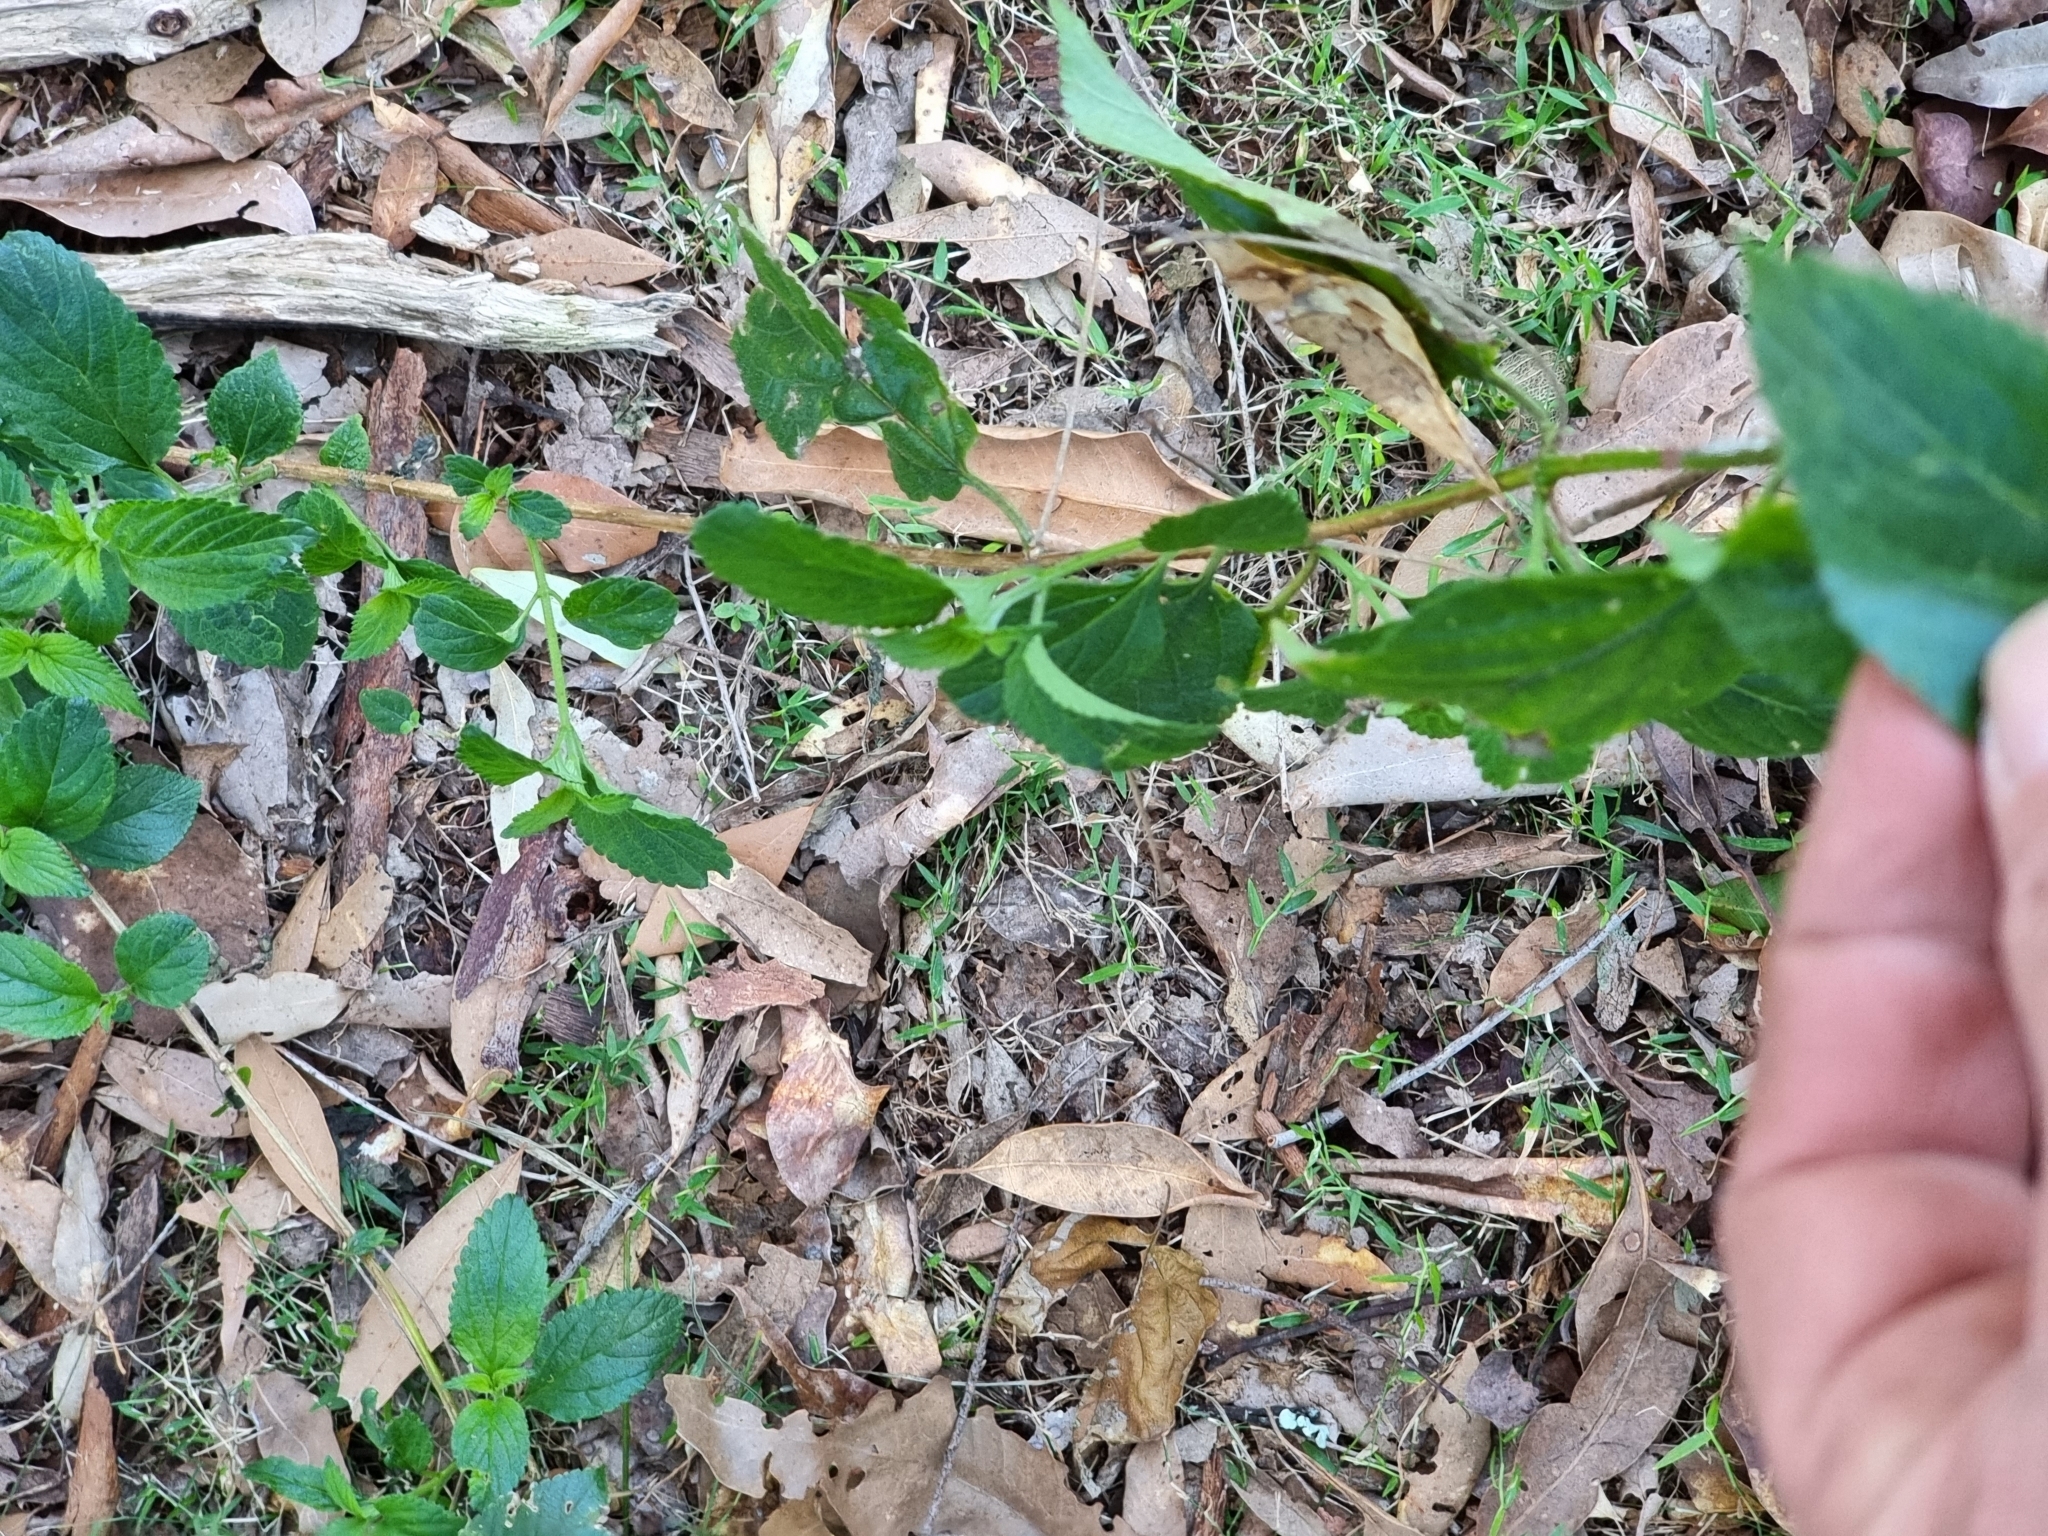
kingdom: Plantae
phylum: Tracheophyta
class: Magnoliopsida
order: Lamiales
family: Verbenaceae
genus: Lantana
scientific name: Lantana camara
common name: Lantana
